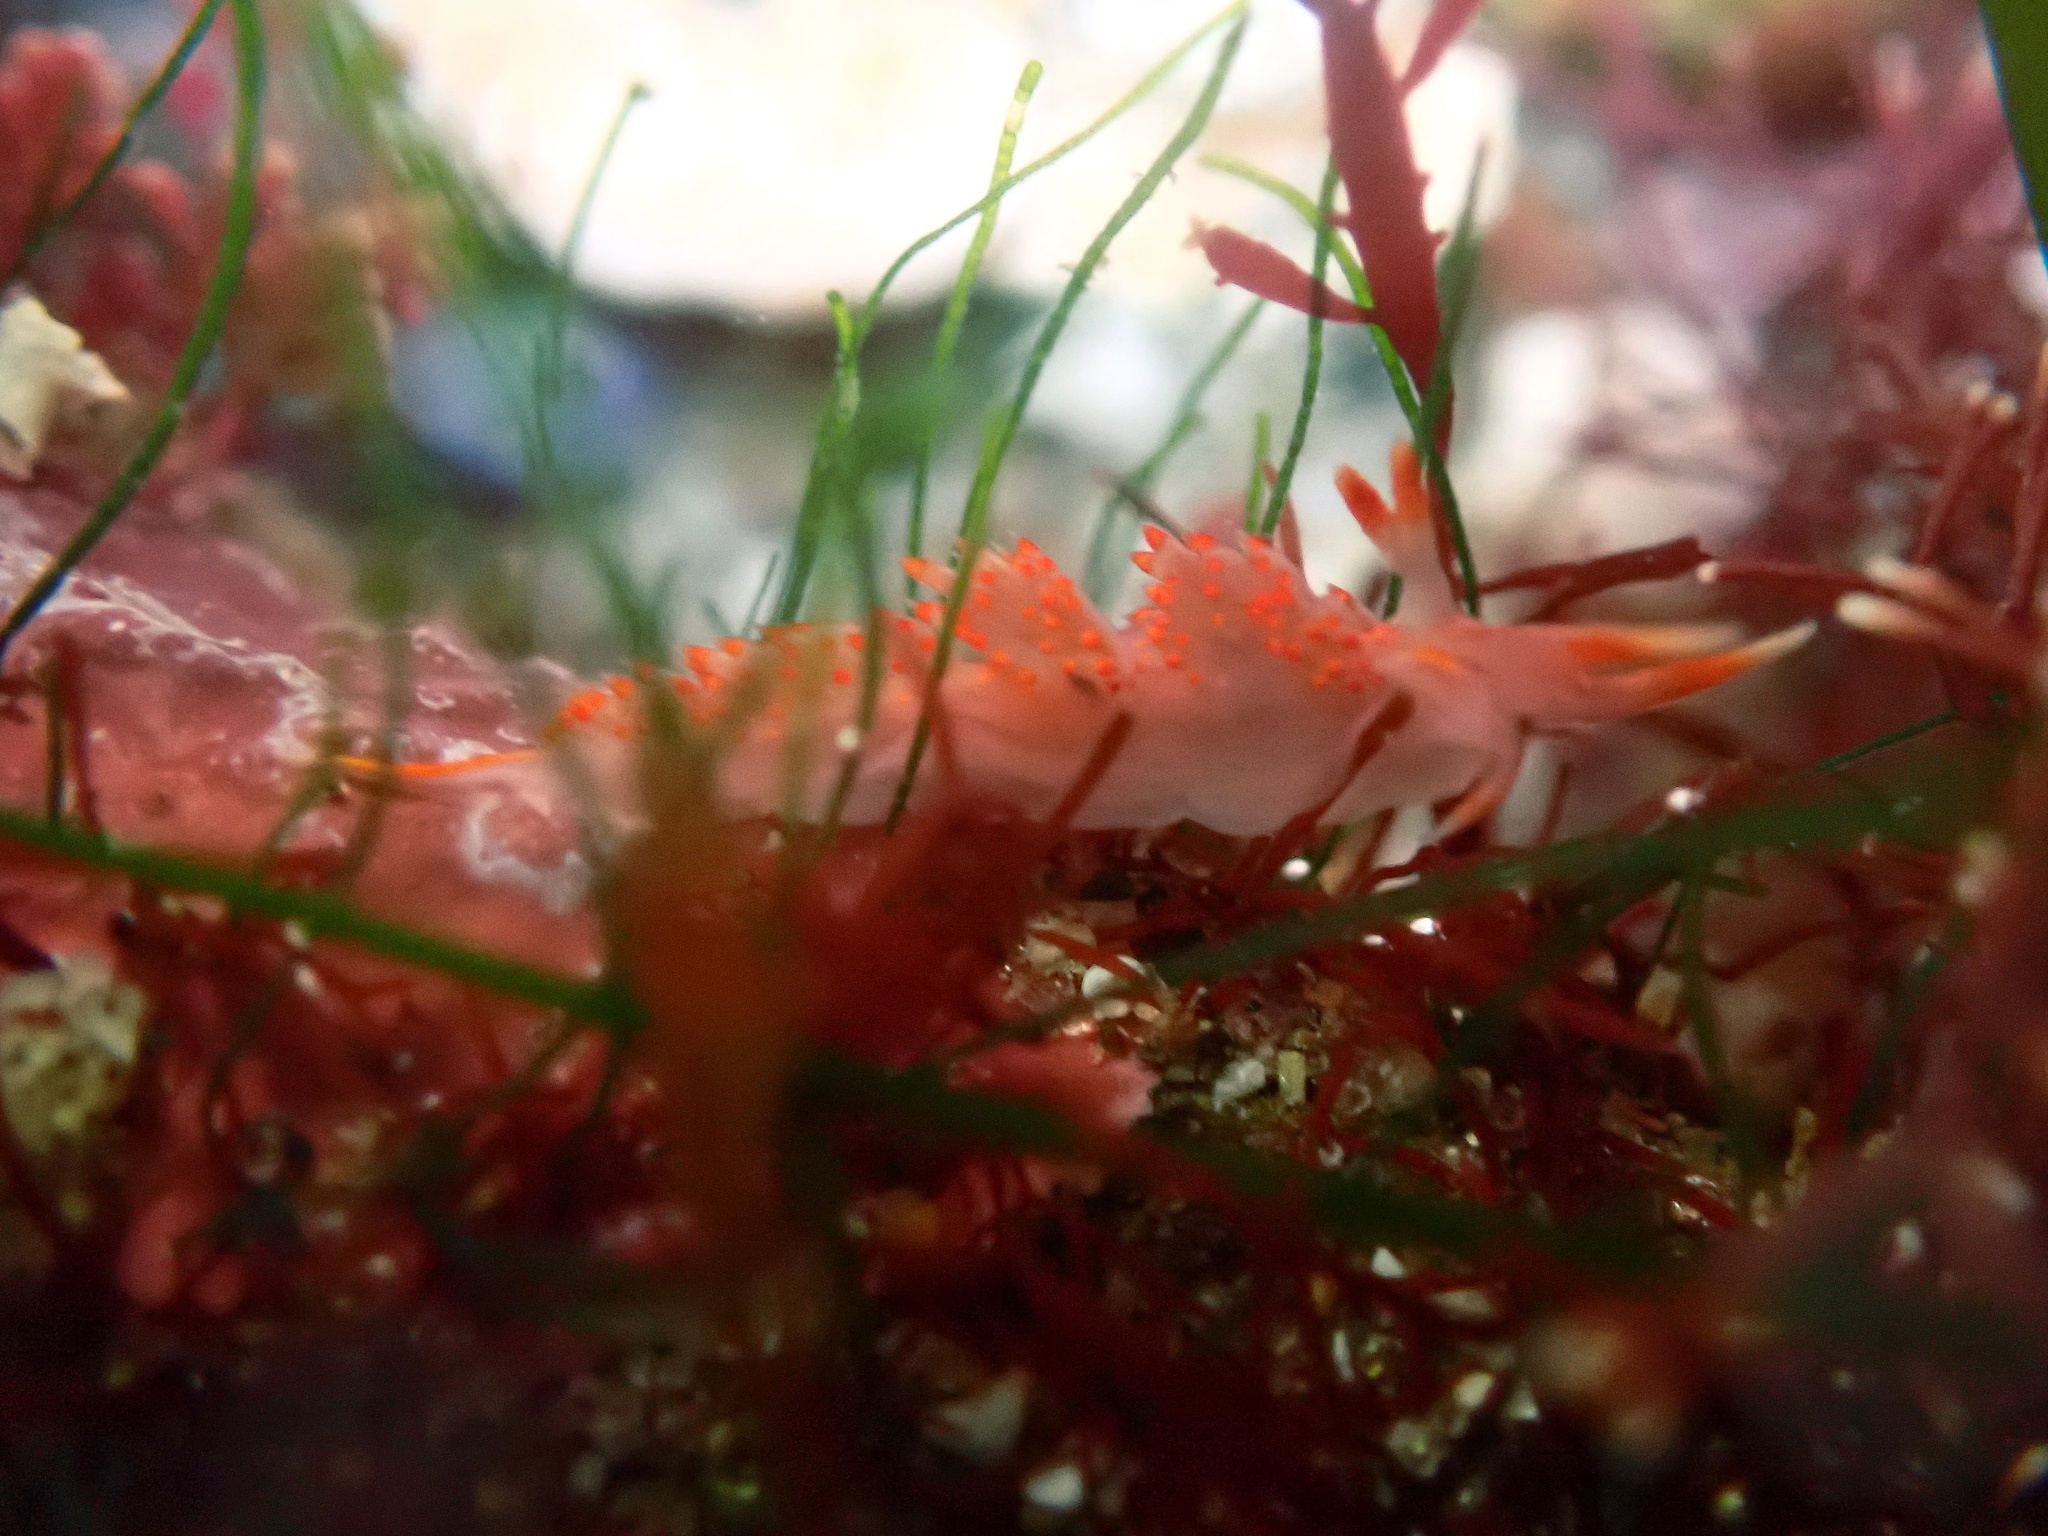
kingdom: Animalia
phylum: Mollusca
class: Gastropoda
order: Nudibranchia
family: Facelinidae
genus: Austraeolis
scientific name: Austraeolis stearnsi
